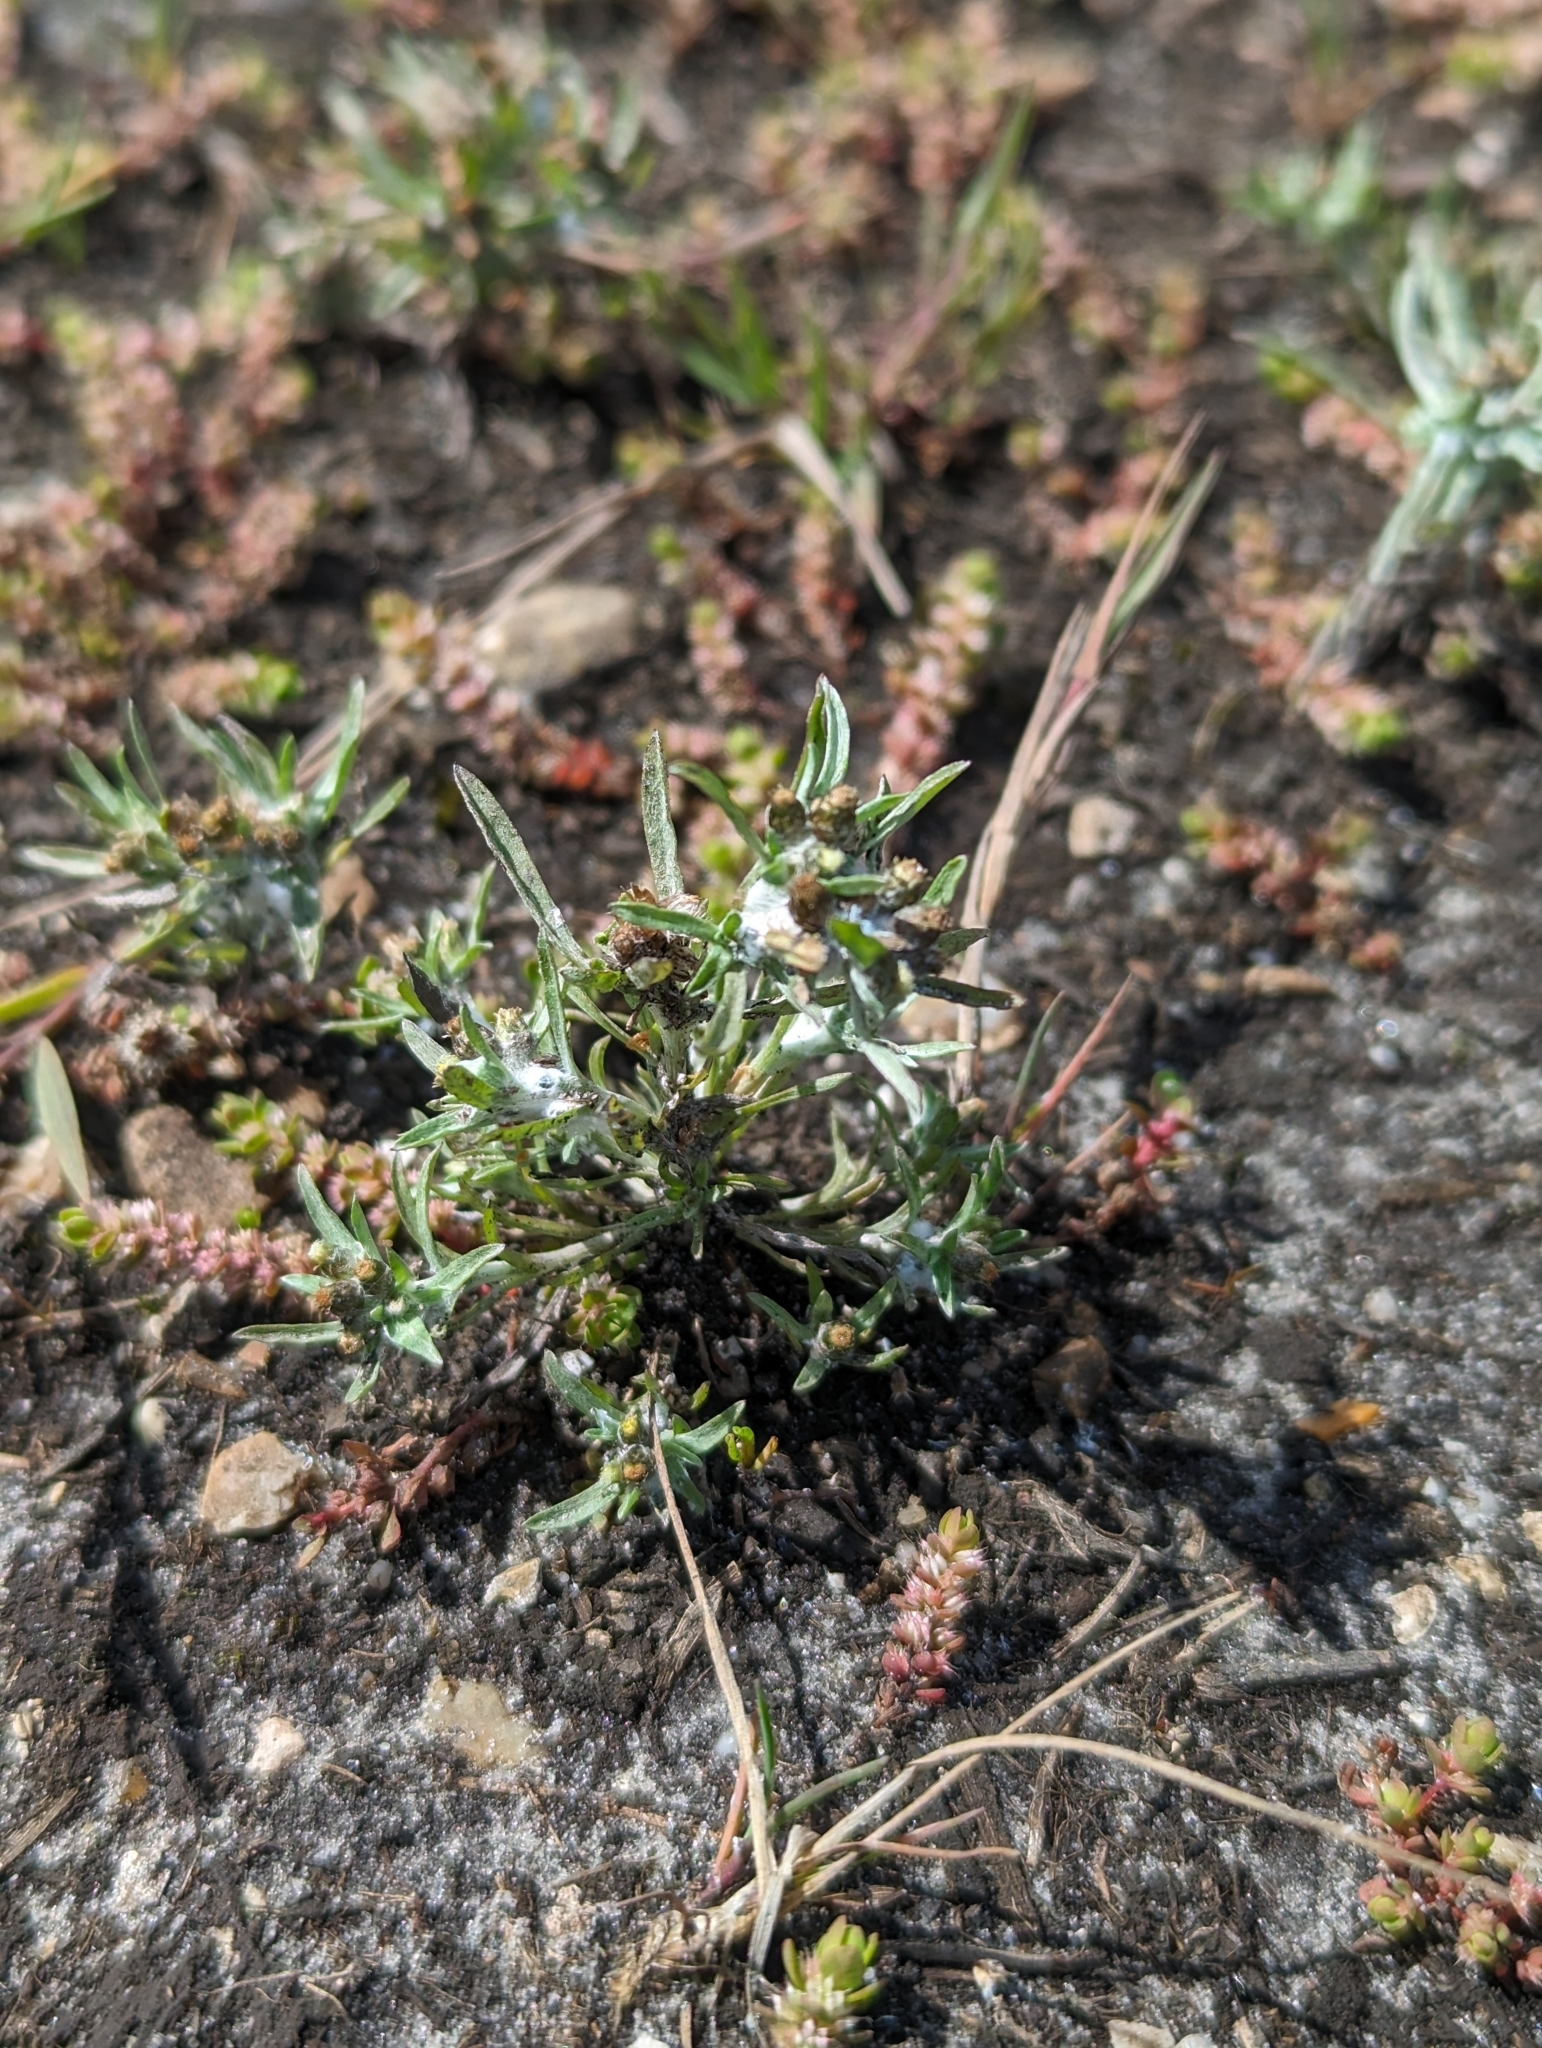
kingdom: Plantae
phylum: Tracheophyta
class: Magnoliopsida
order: Asterales
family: Asteraceae
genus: Gnaphalium
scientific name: Gnaphalium uliginosum
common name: Marsh cudweed
